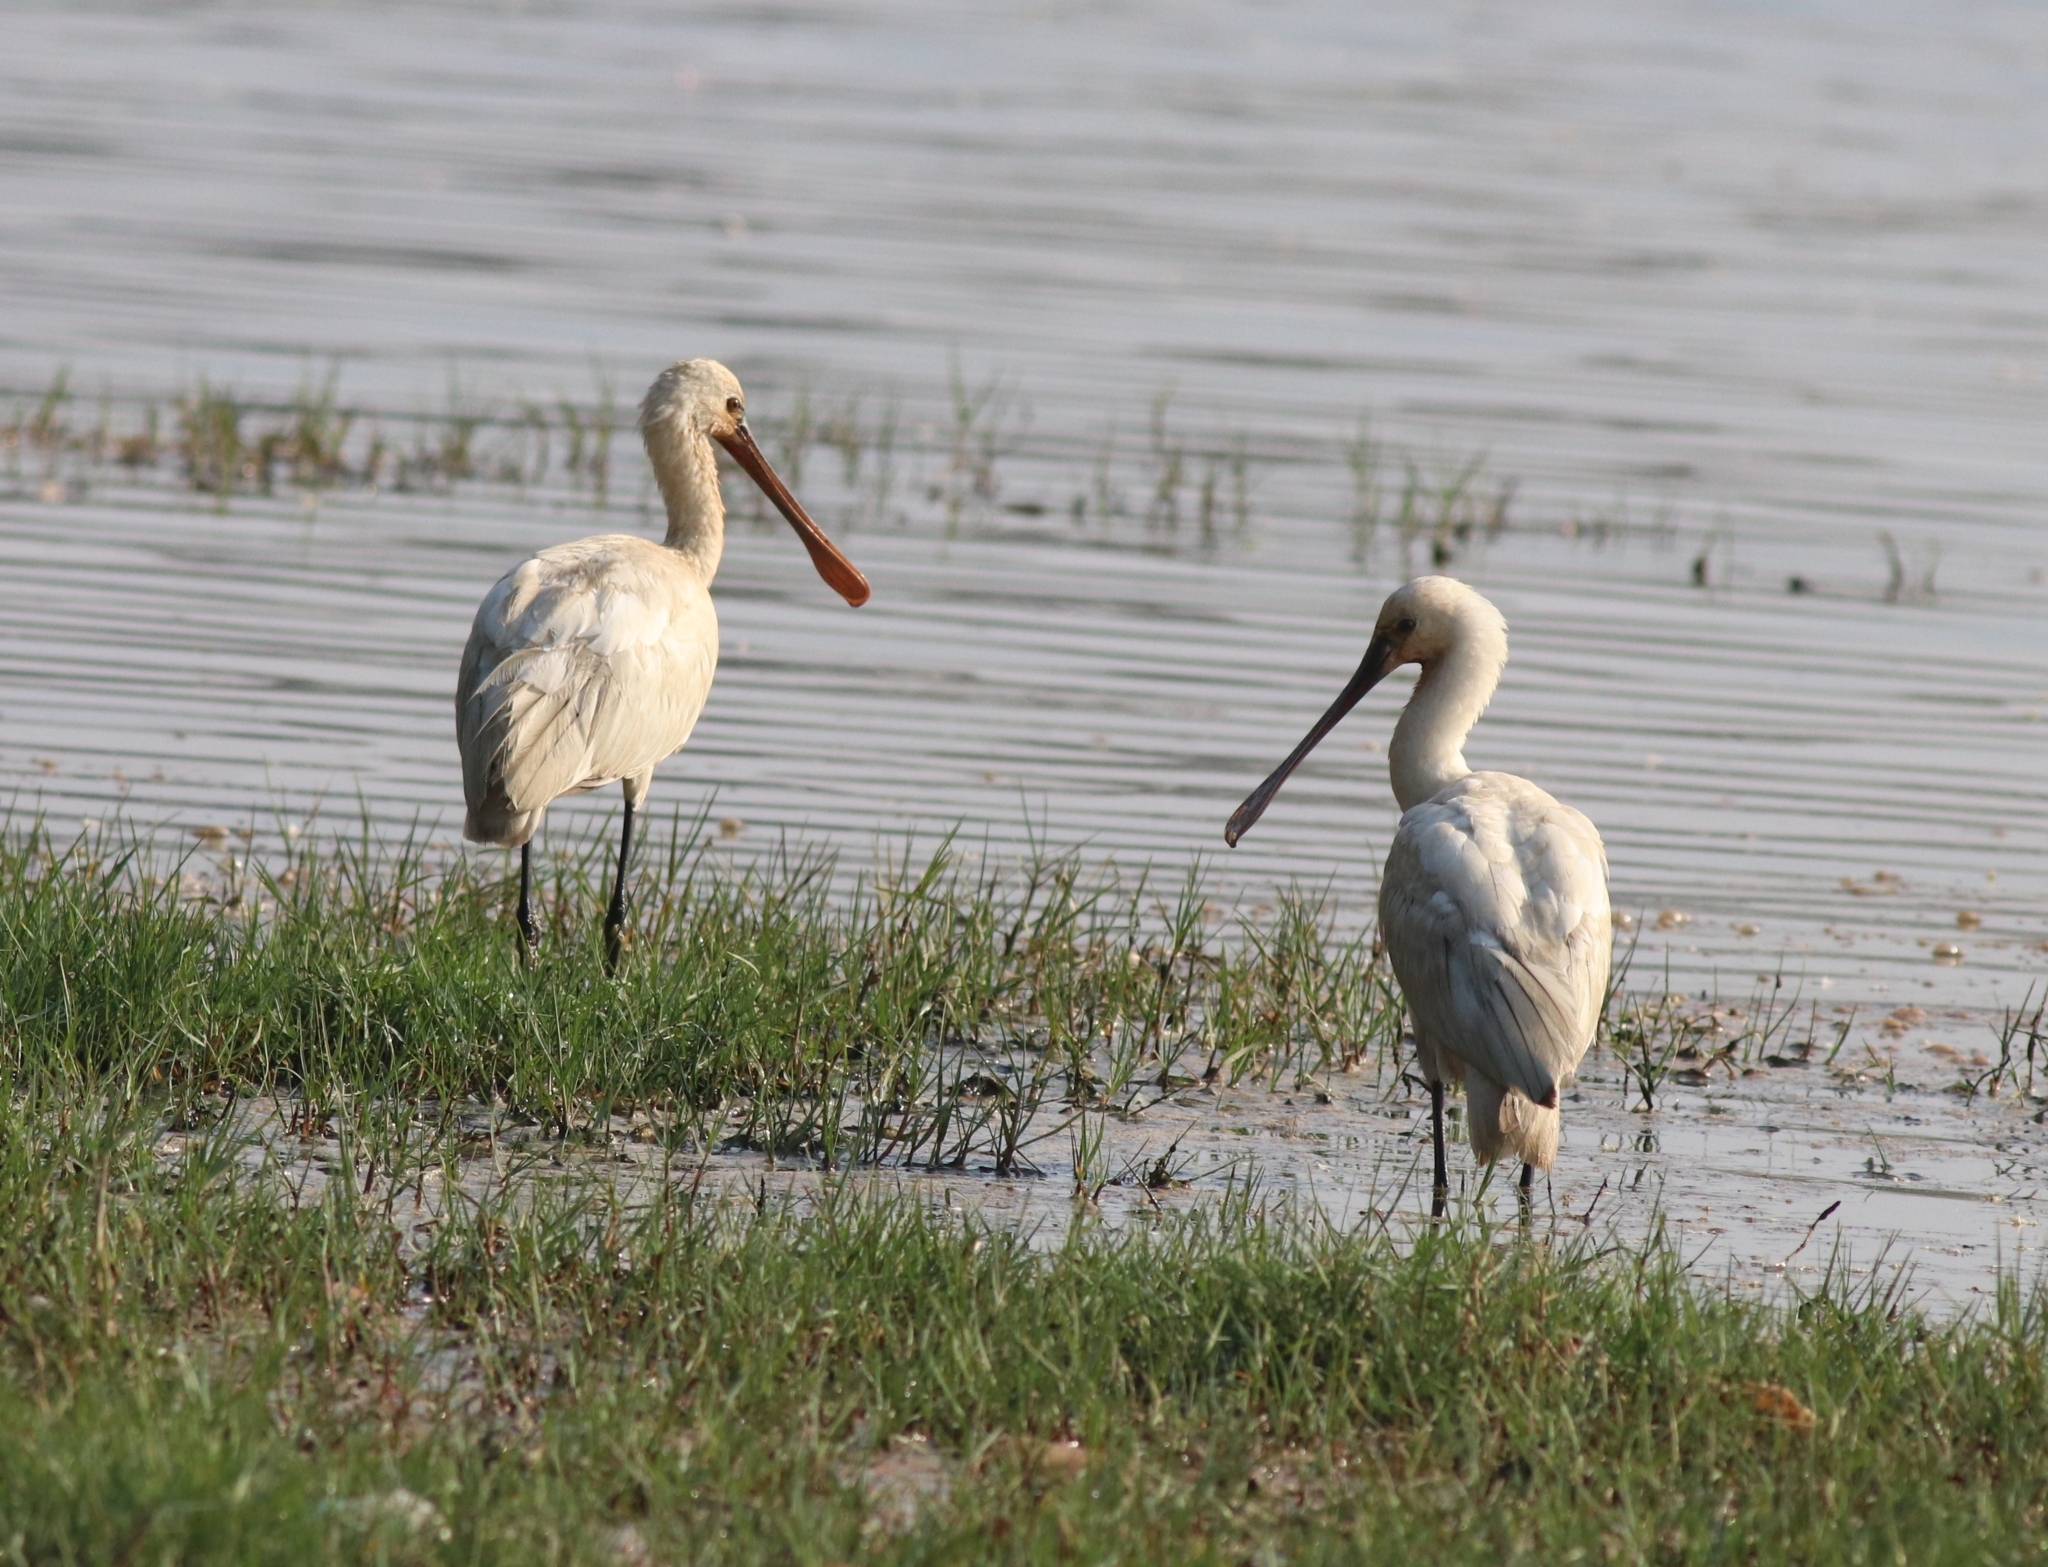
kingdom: Animalia
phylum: Chordata
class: Aves
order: Pelecaniformes
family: Threskiornithidae
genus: Platalea
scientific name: Platalea leucorodia
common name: Eurasian spoonbill
